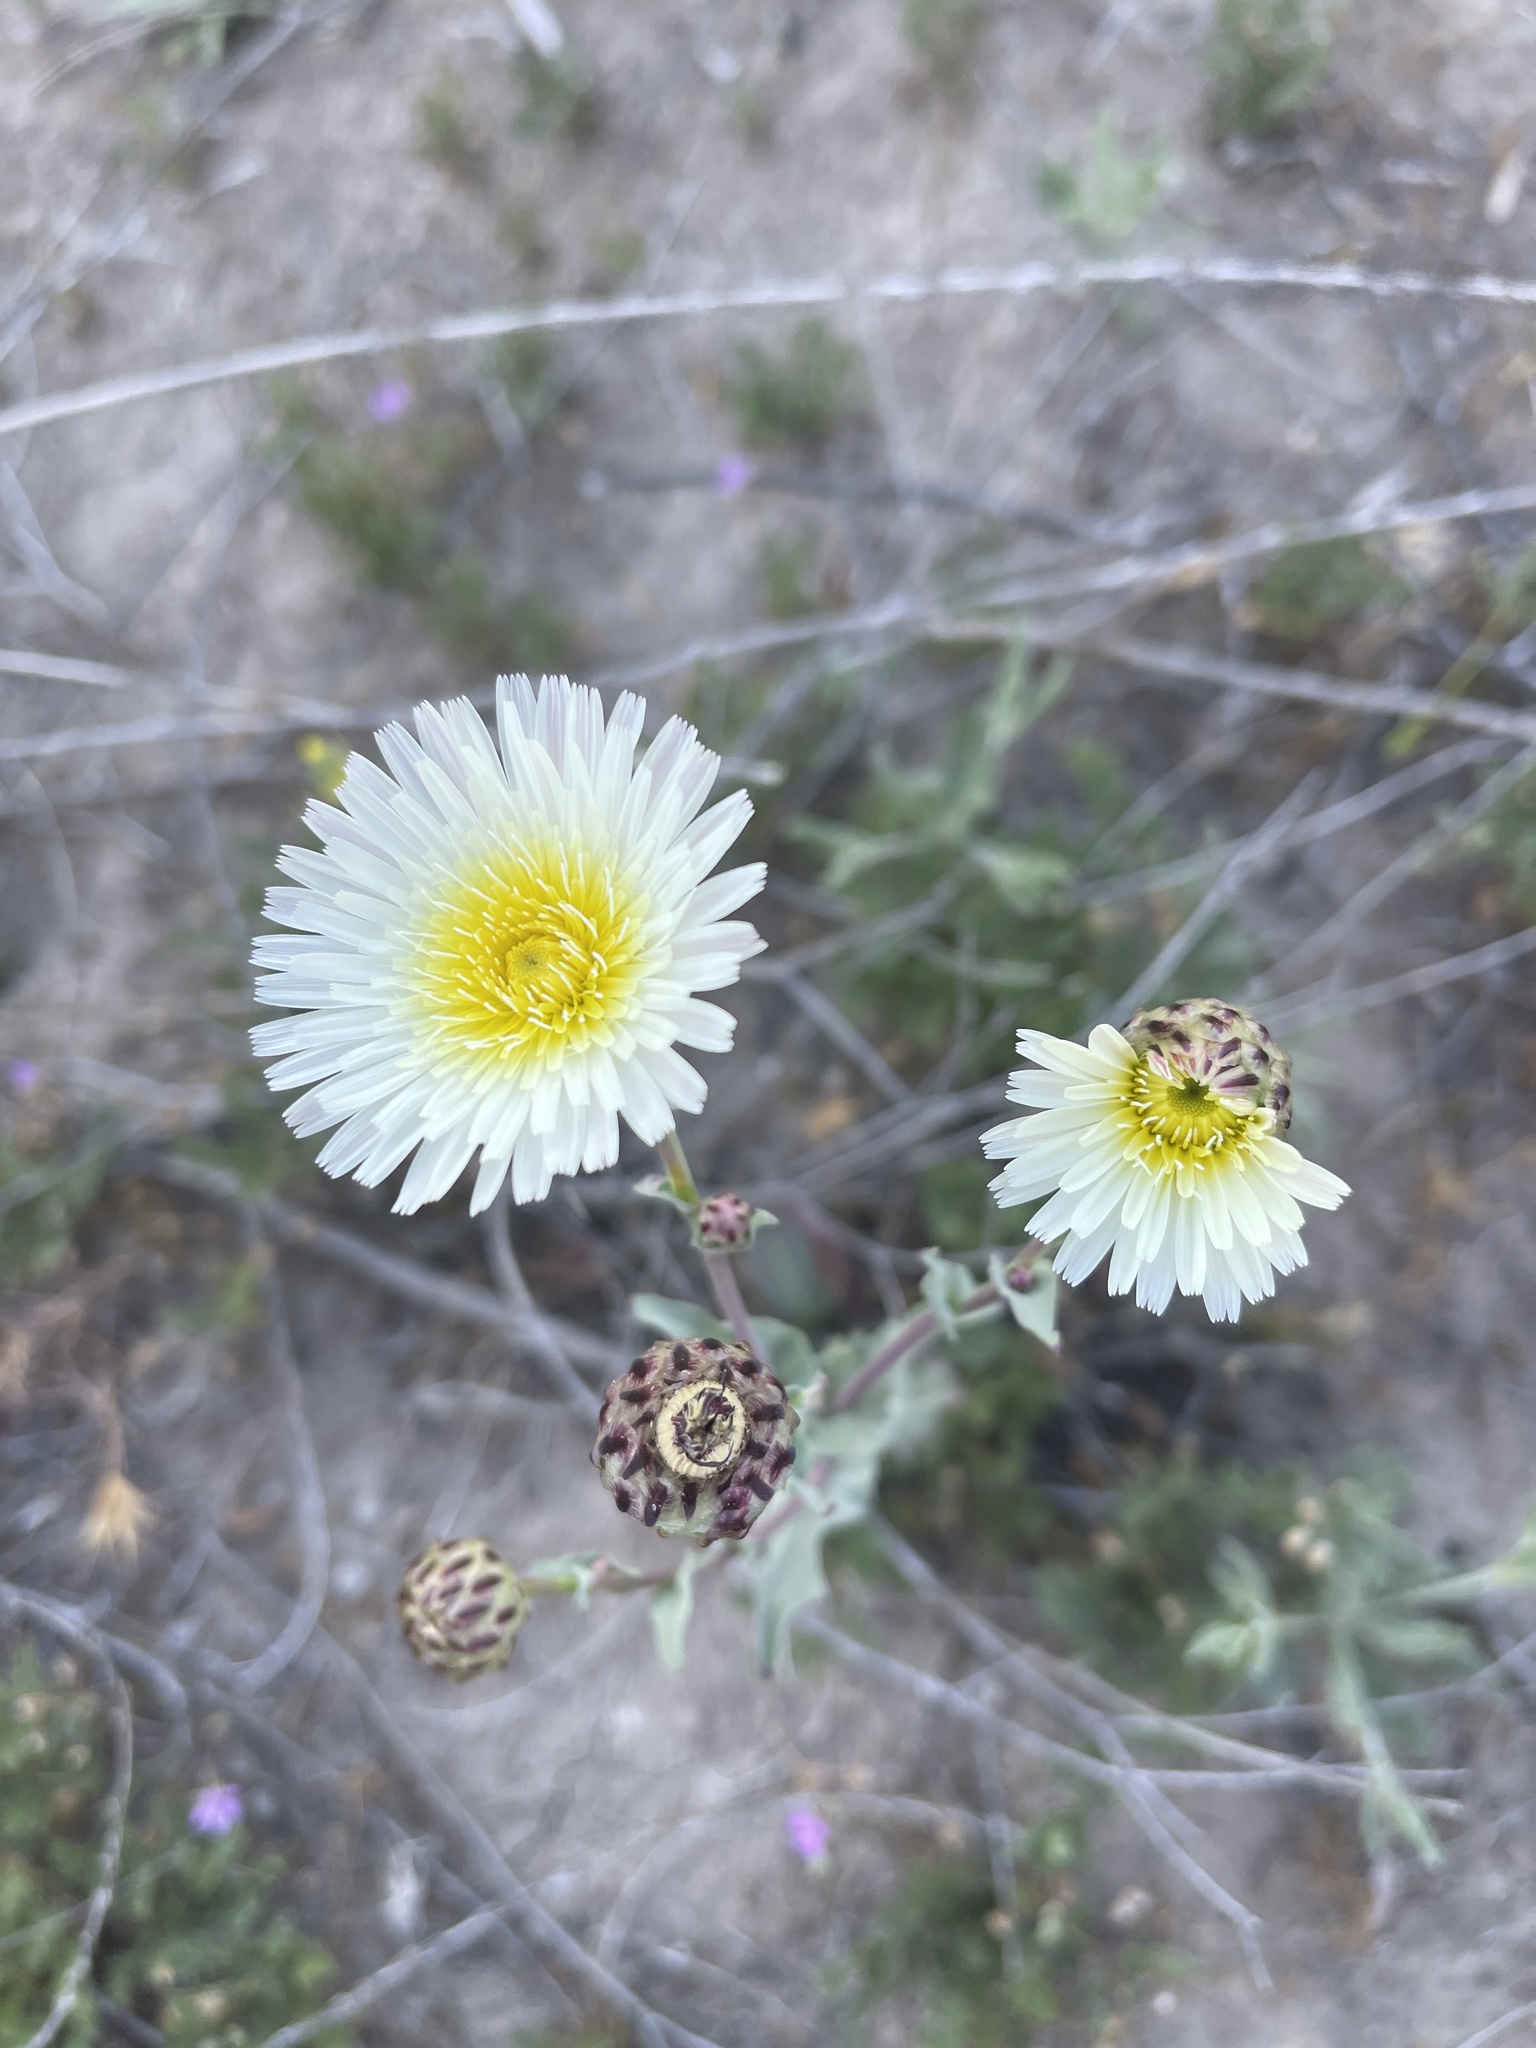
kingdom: Plantae
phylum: Tracheophyta
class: Magnoliopsida
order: Asterales
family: Asteraceae
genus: Malacothrix
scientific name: Malacothrix coulteri
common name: Snake's-head
